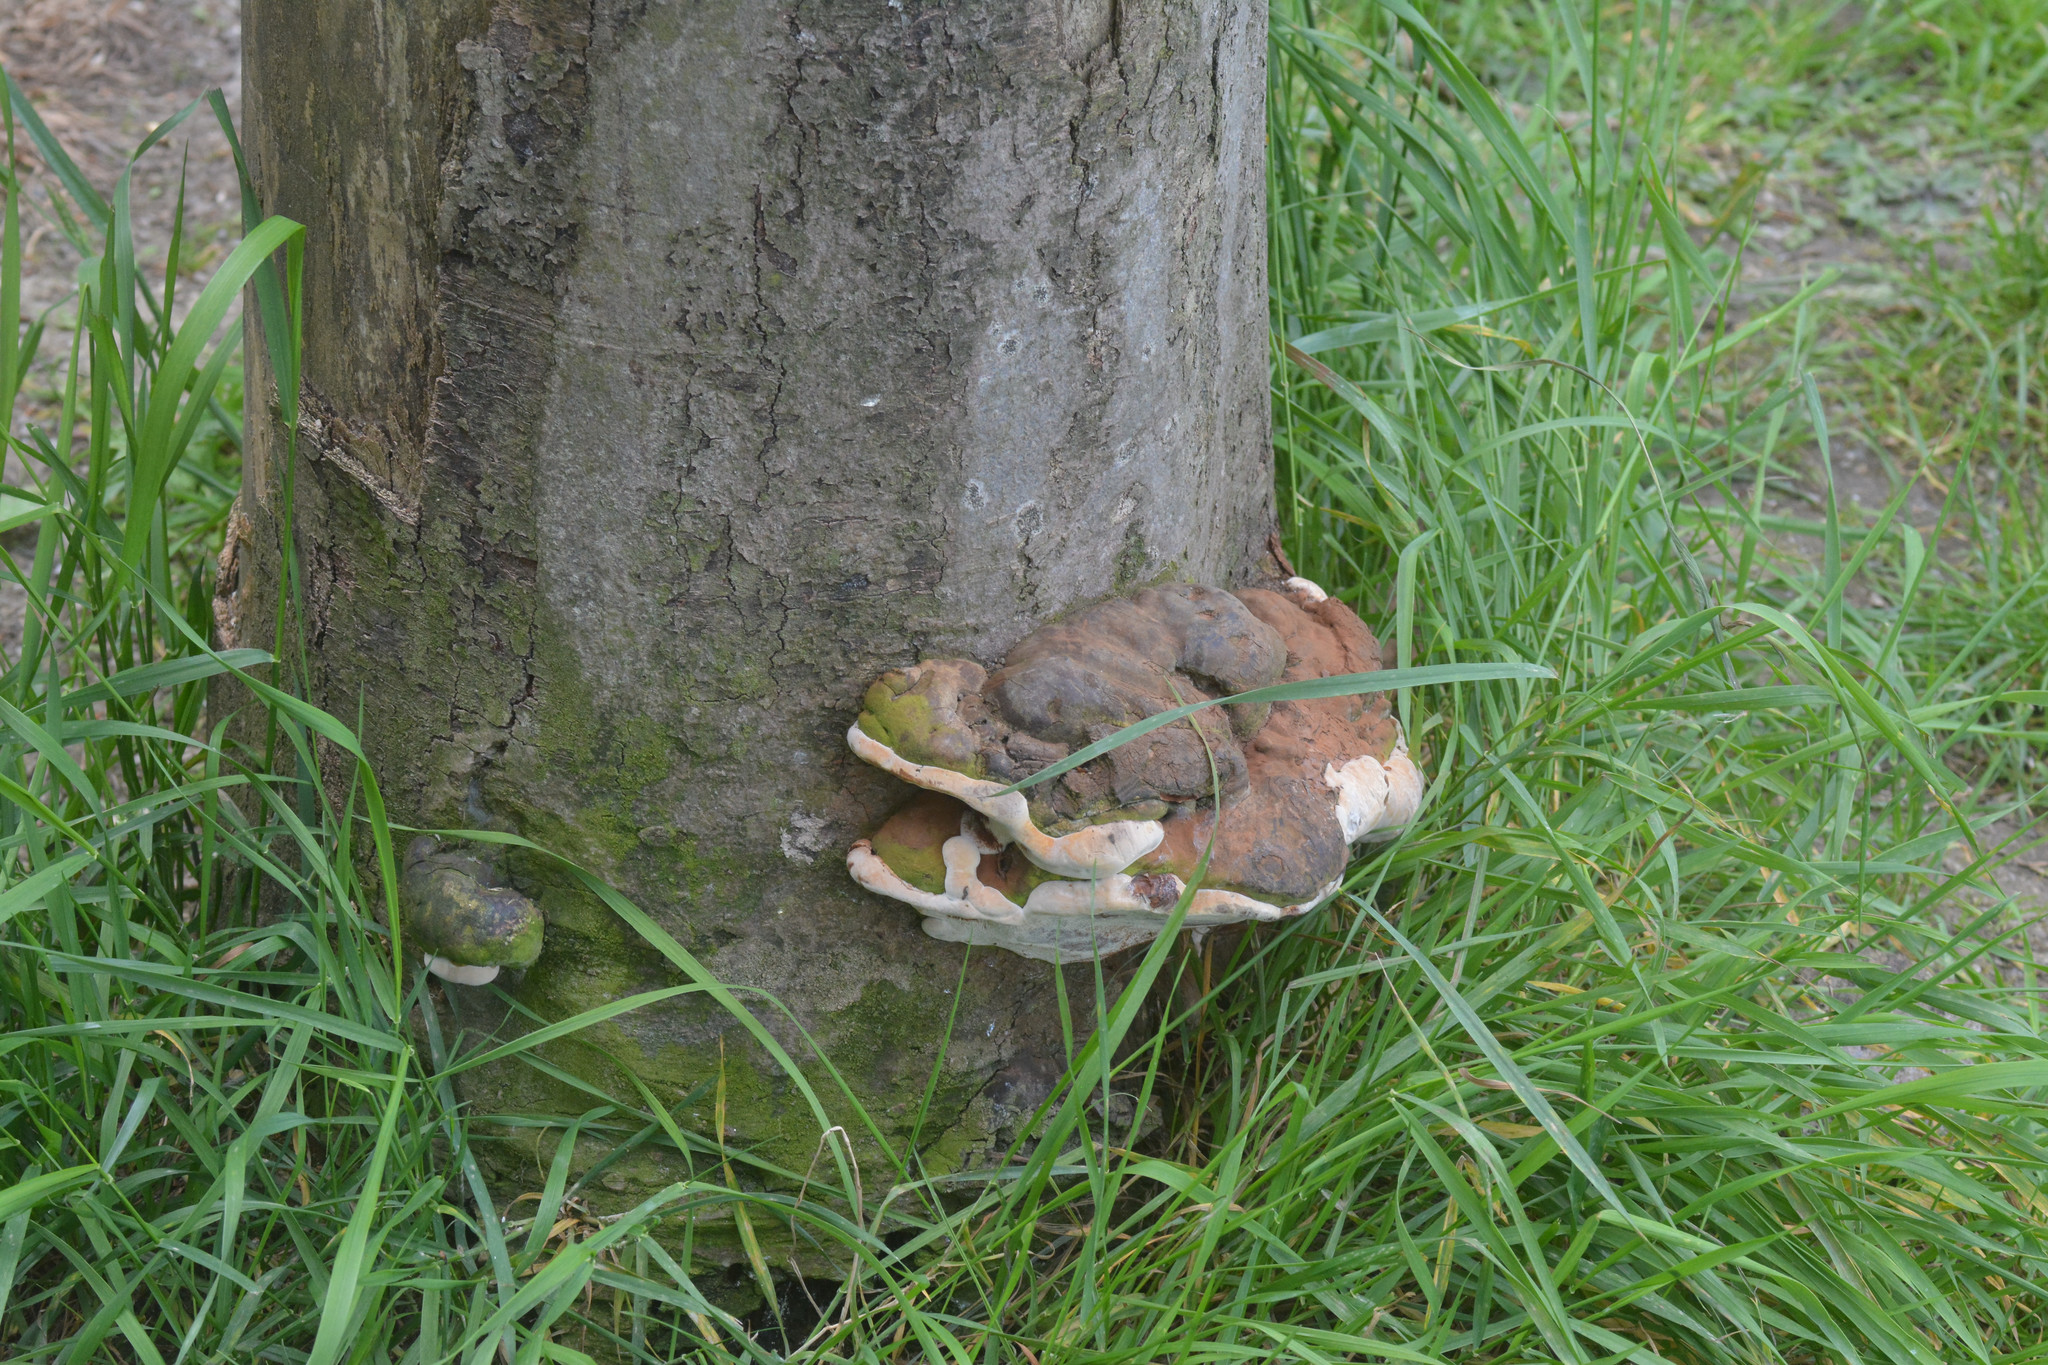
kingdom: Fungi
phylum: Basidiomycota
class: Agaricomycetes
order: Polyporales
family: Polyporaceae
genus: Ganoderma
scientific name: Ganoderma
